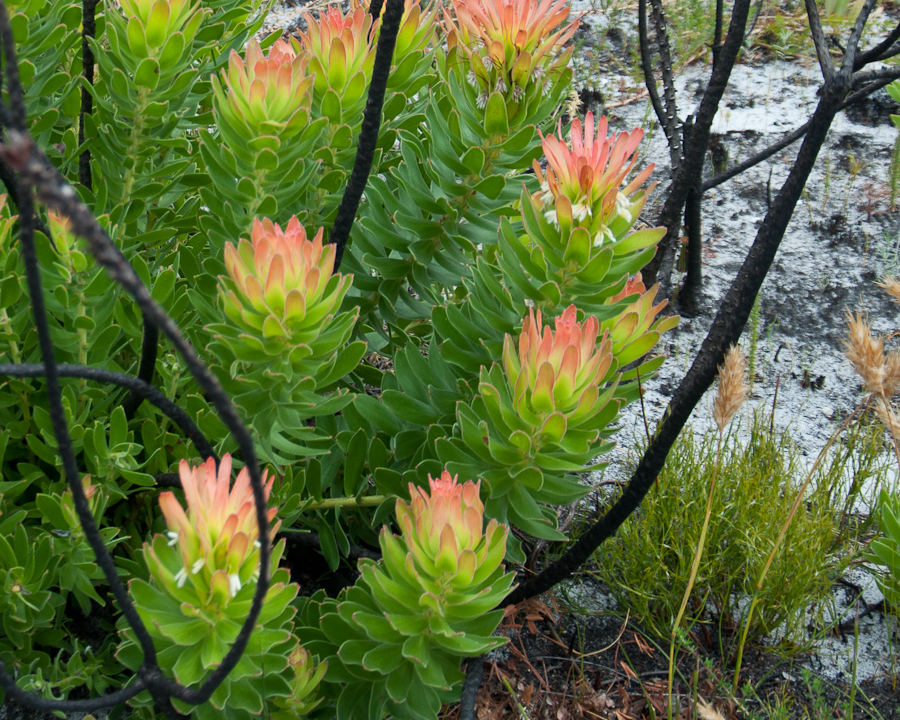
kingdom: Plantae
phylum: Tracheophyta
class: Magnoliopsida
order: Proteales
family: Proteaceae
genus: Mimetes
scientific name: Mimetes cucullatus
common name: Common pagoda
